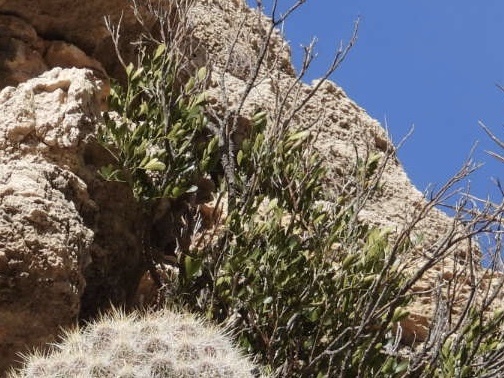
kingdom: Plantae
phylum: Tracheophyta
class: Magnoliopsida
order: Fabales
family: Fabaceae
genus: Dermatophyllum
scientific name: Dermatophyllum secundiflorum
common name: Texas-mountain-laurel
